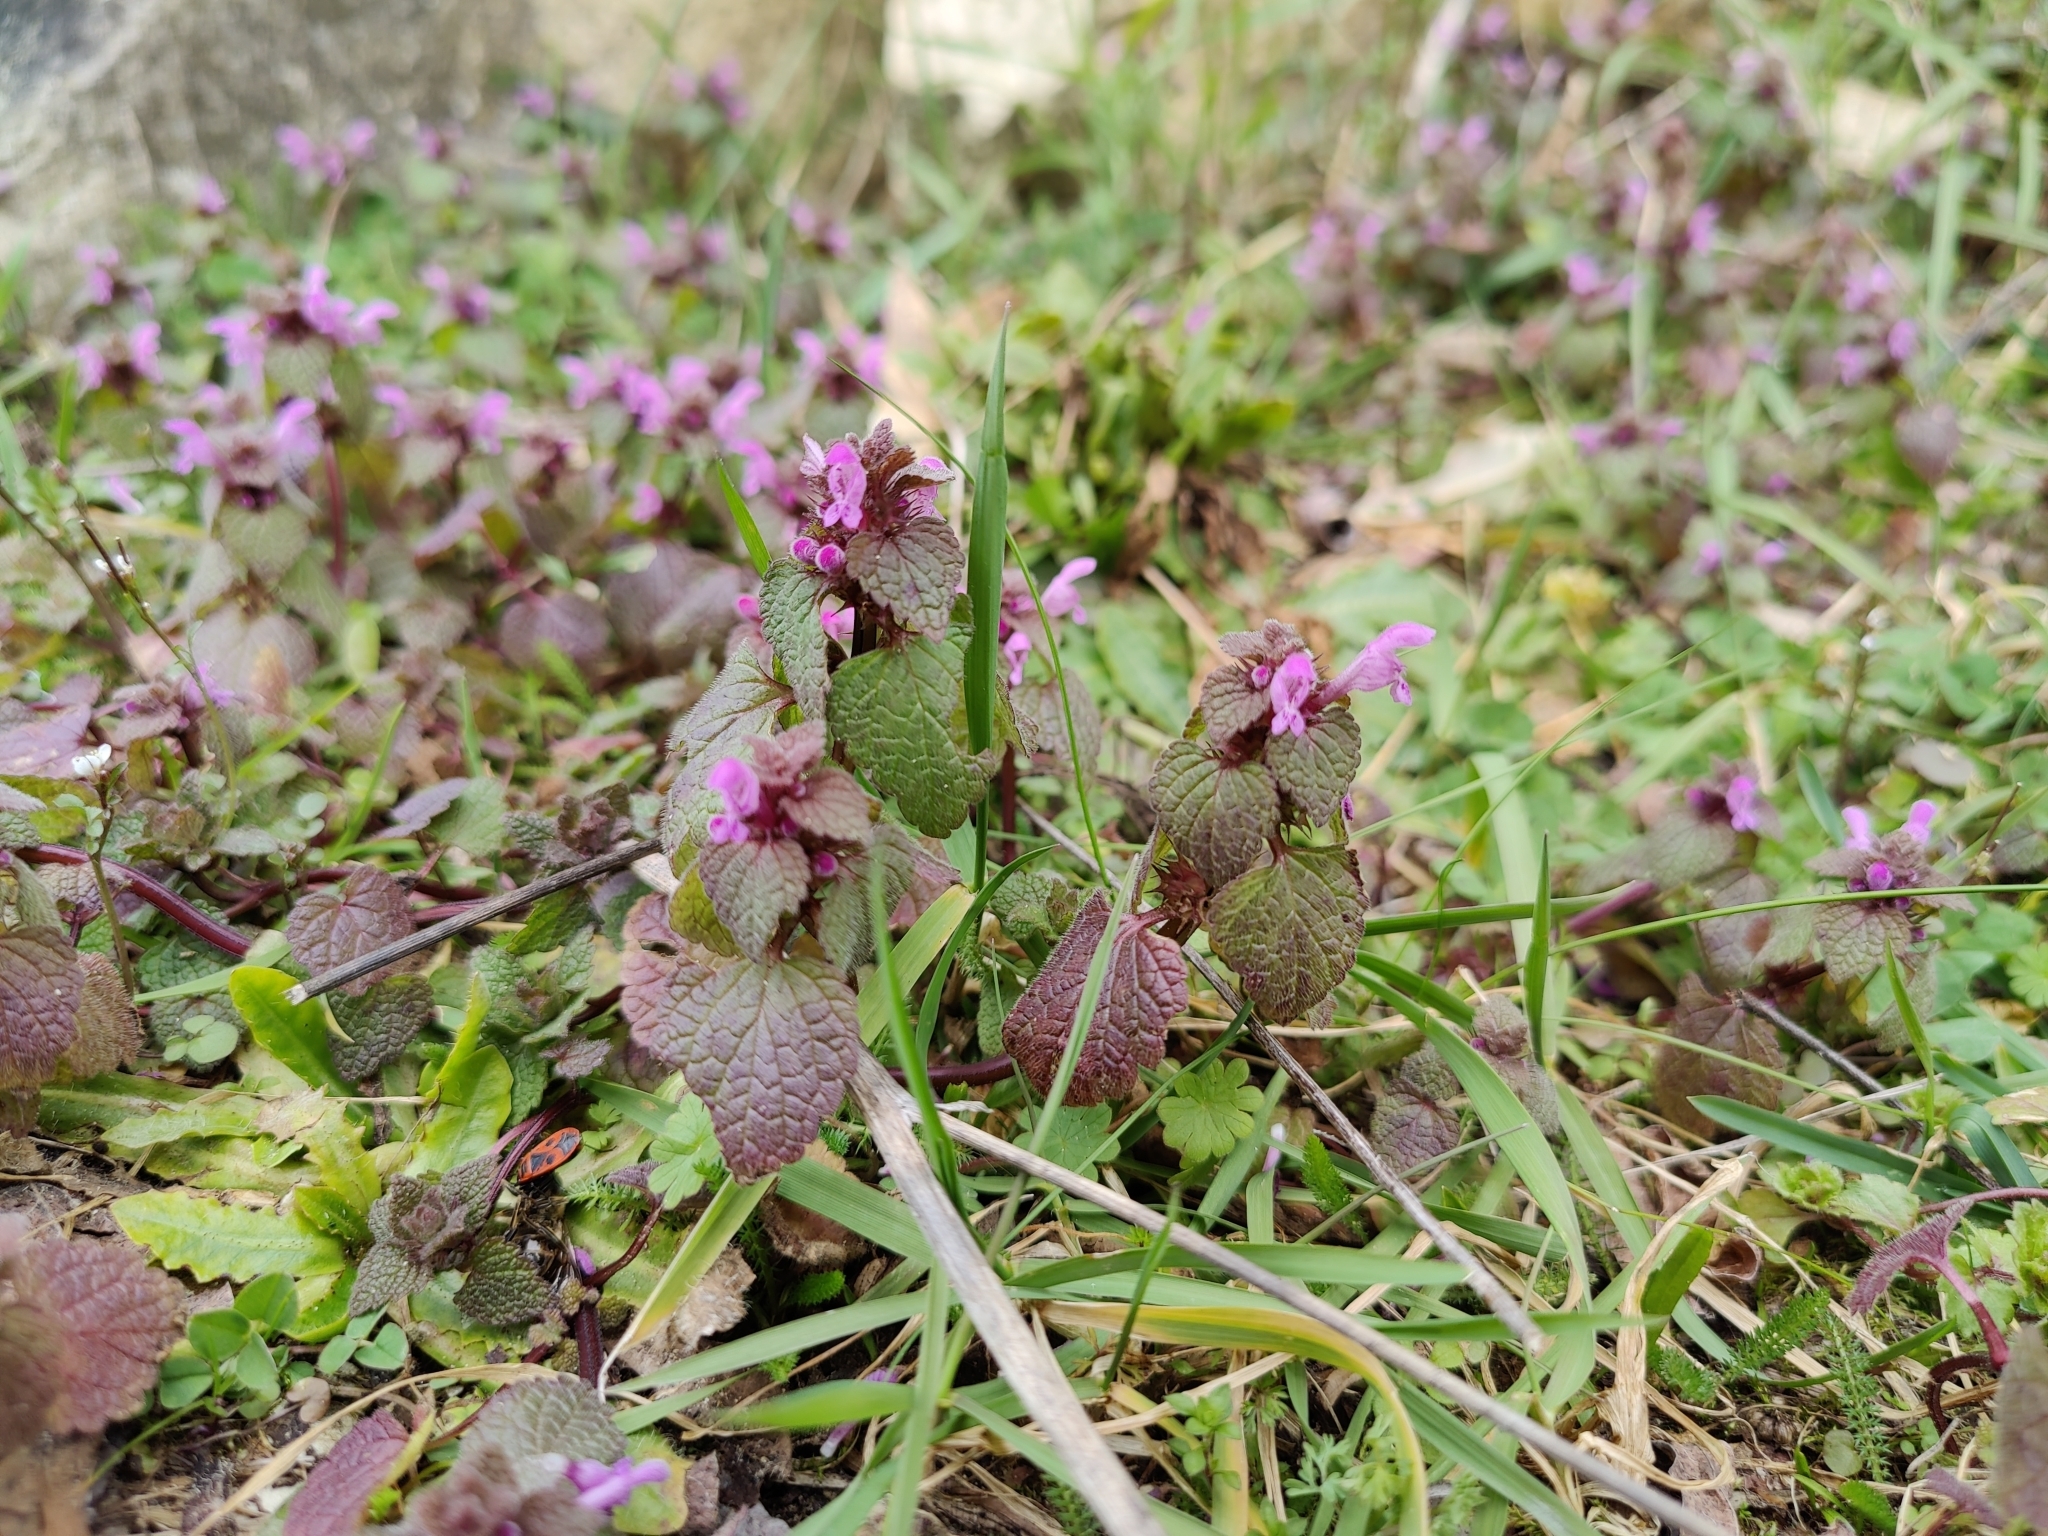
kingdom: Plantae
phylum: Tracheophyta
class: Magnoliopsida
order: Lamiales
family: Lamiaceae
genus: Lamium
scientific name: Lamium purpureum
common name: Red dead-nettle
